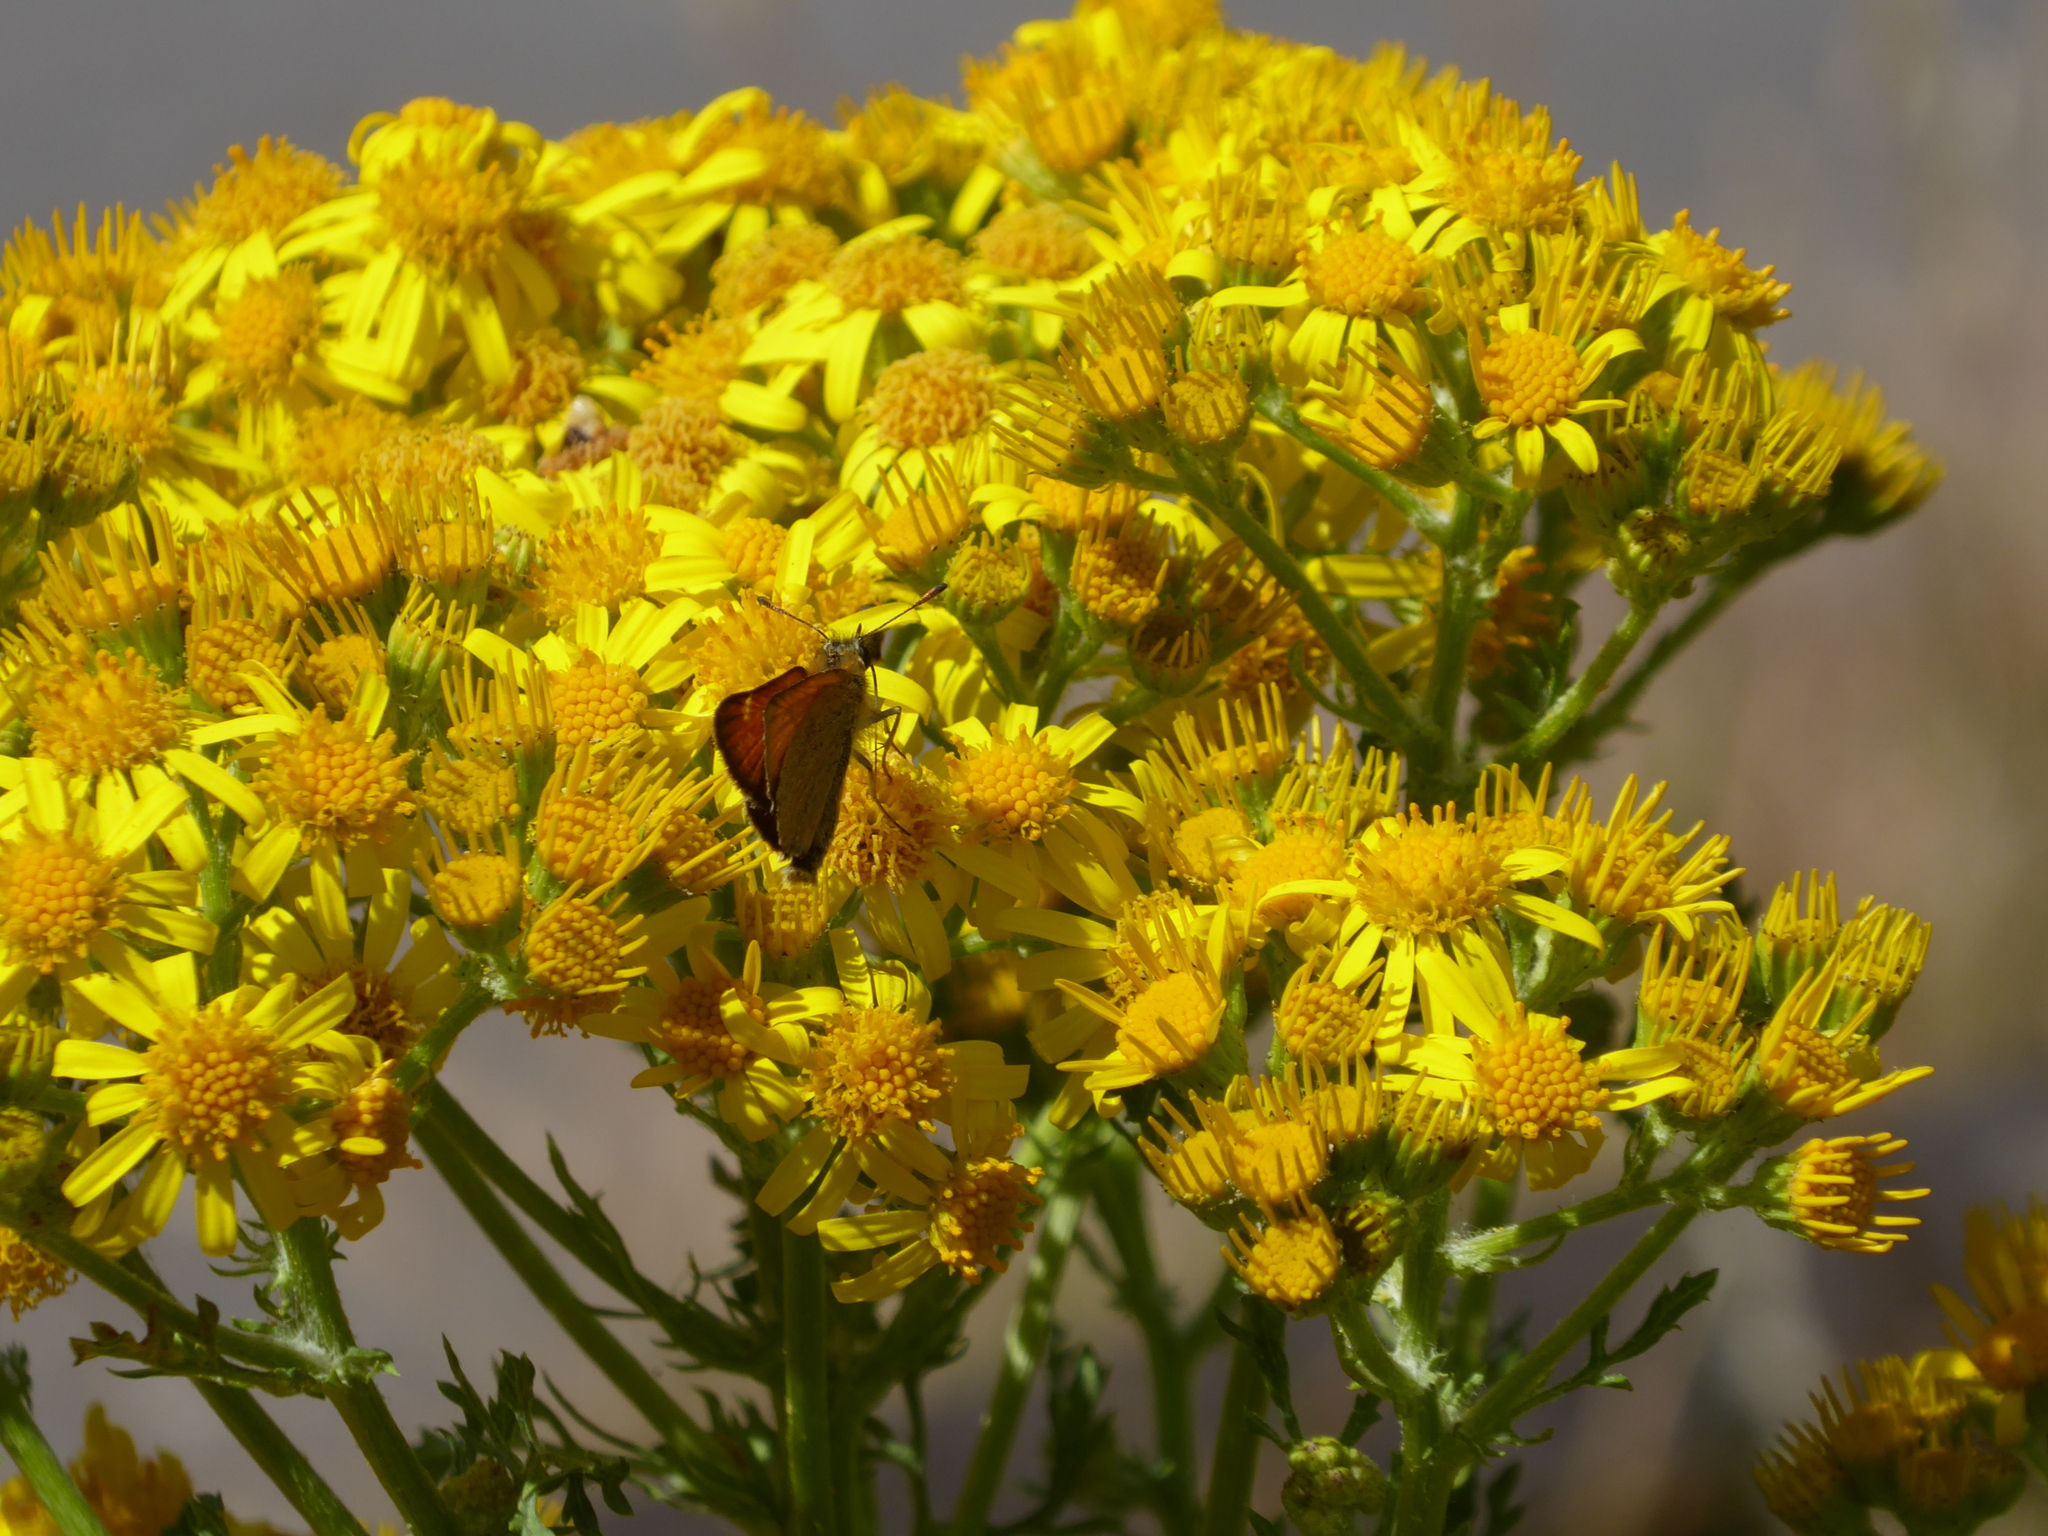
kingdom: Animalia
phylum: Arthropoda
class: Insecta
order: Lepidoptera
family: Hesperiidae
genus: Thymelicus
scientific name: Thymelicus lineola
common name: Essex skipper
